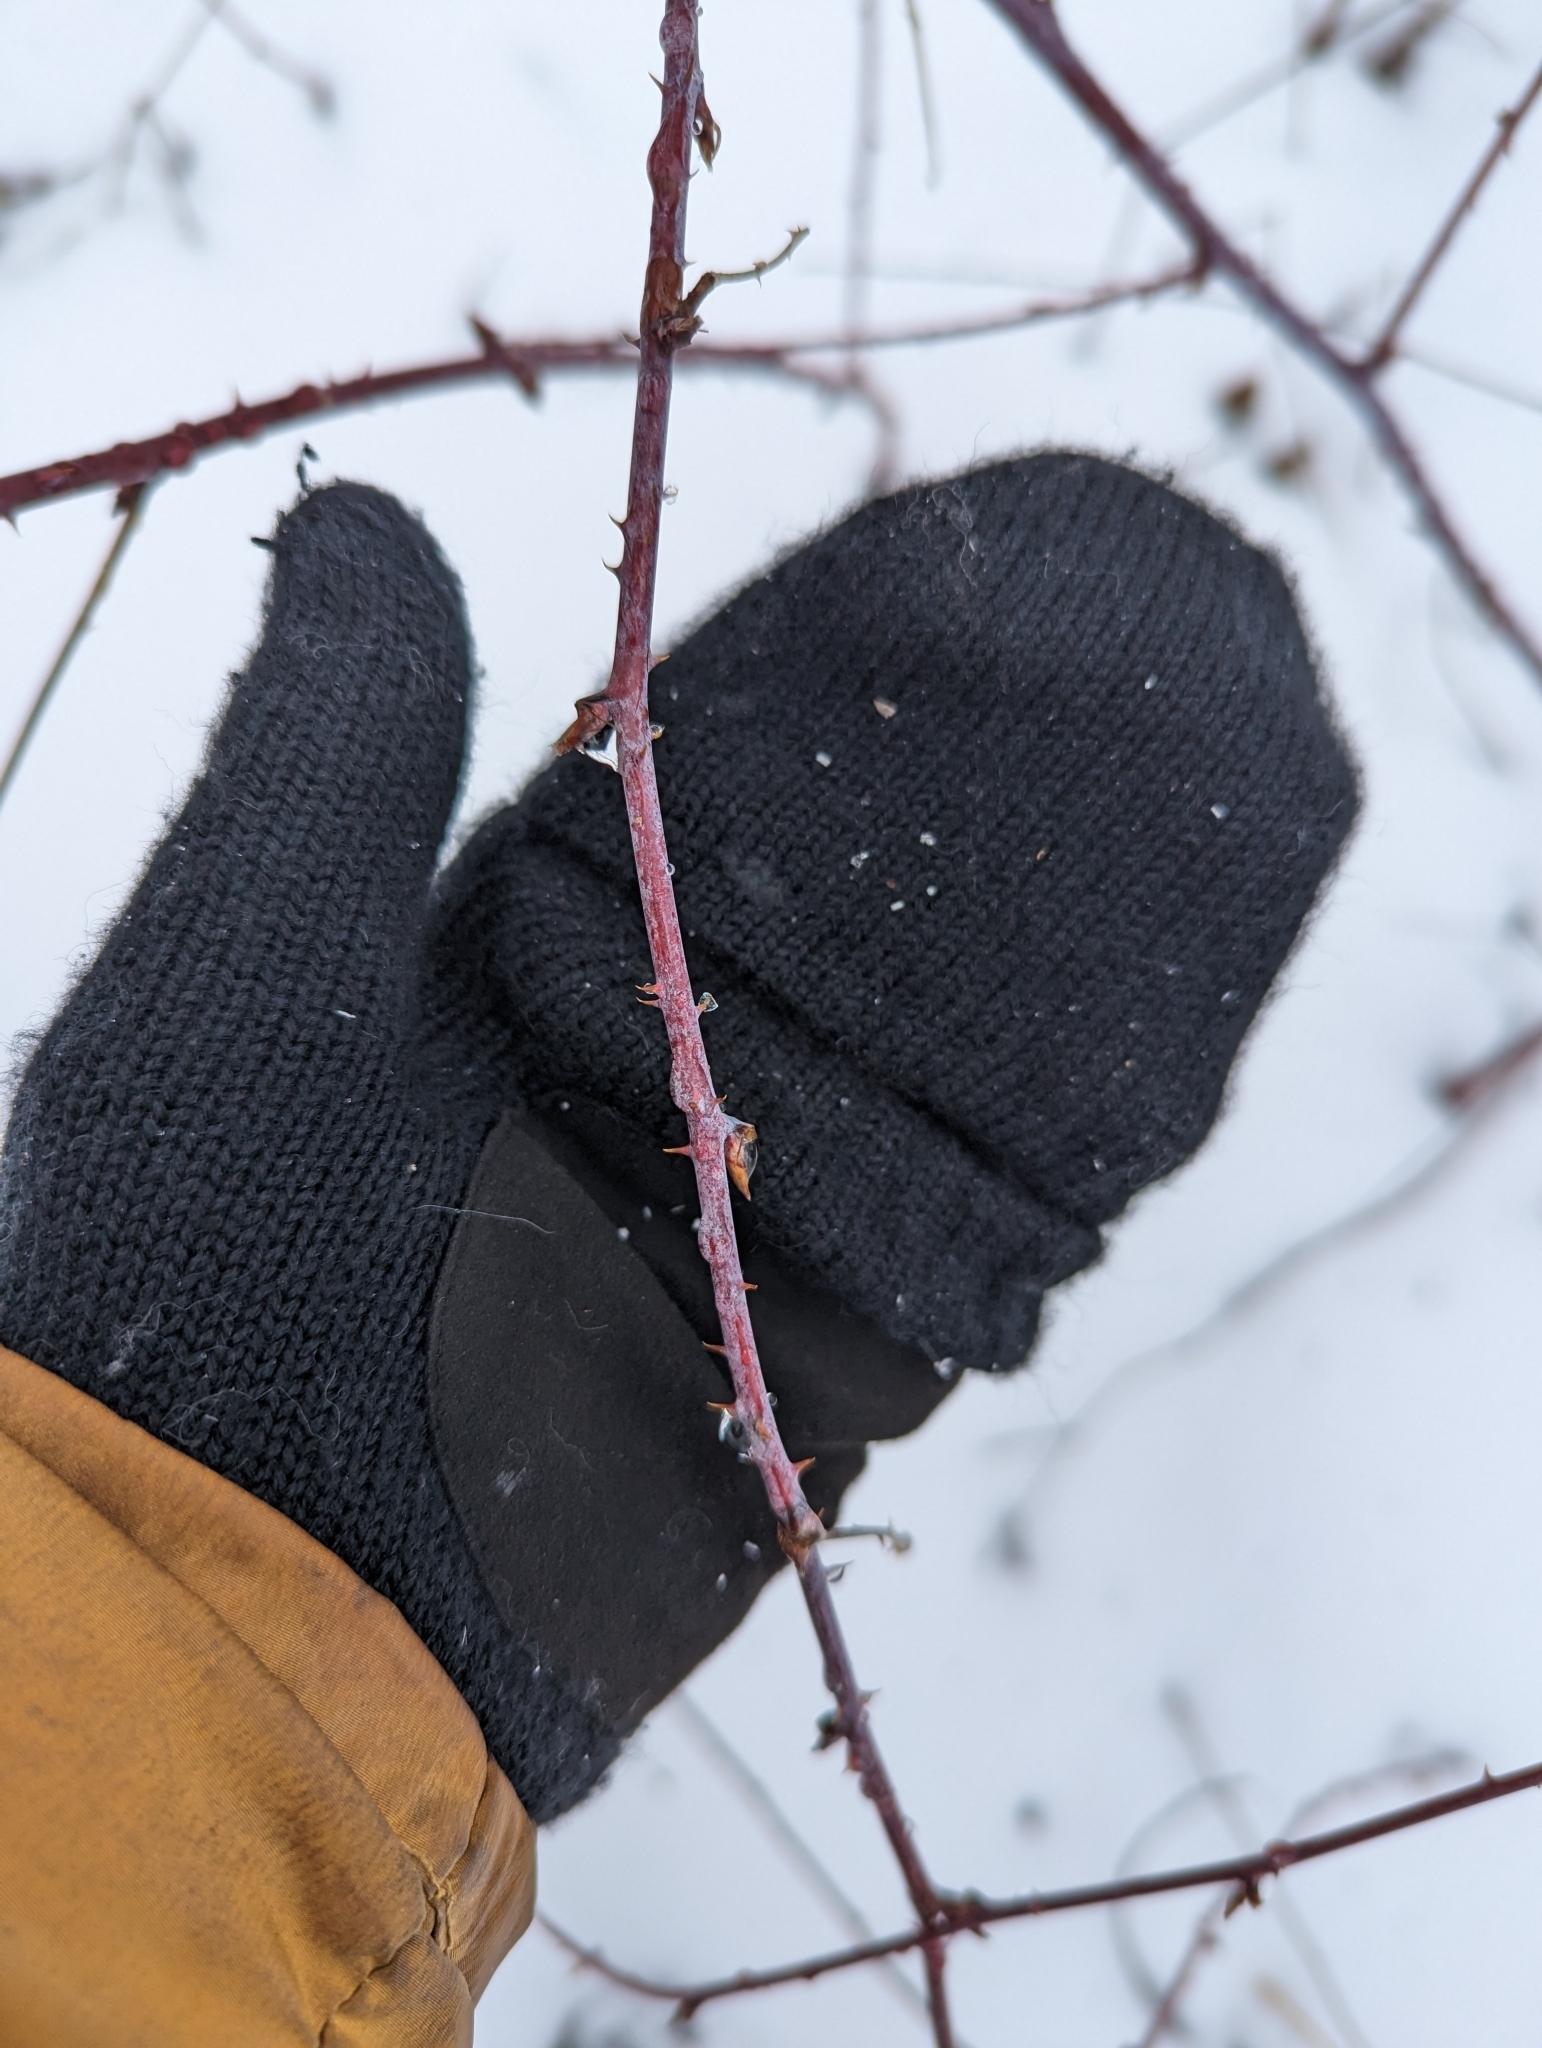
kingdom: Plantae
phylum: Tracheophyta
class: Magnoliopsida
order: Rosales
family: Rosaceae
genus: Rubus
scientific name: Rubus occidentalis
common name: Black raspberry
